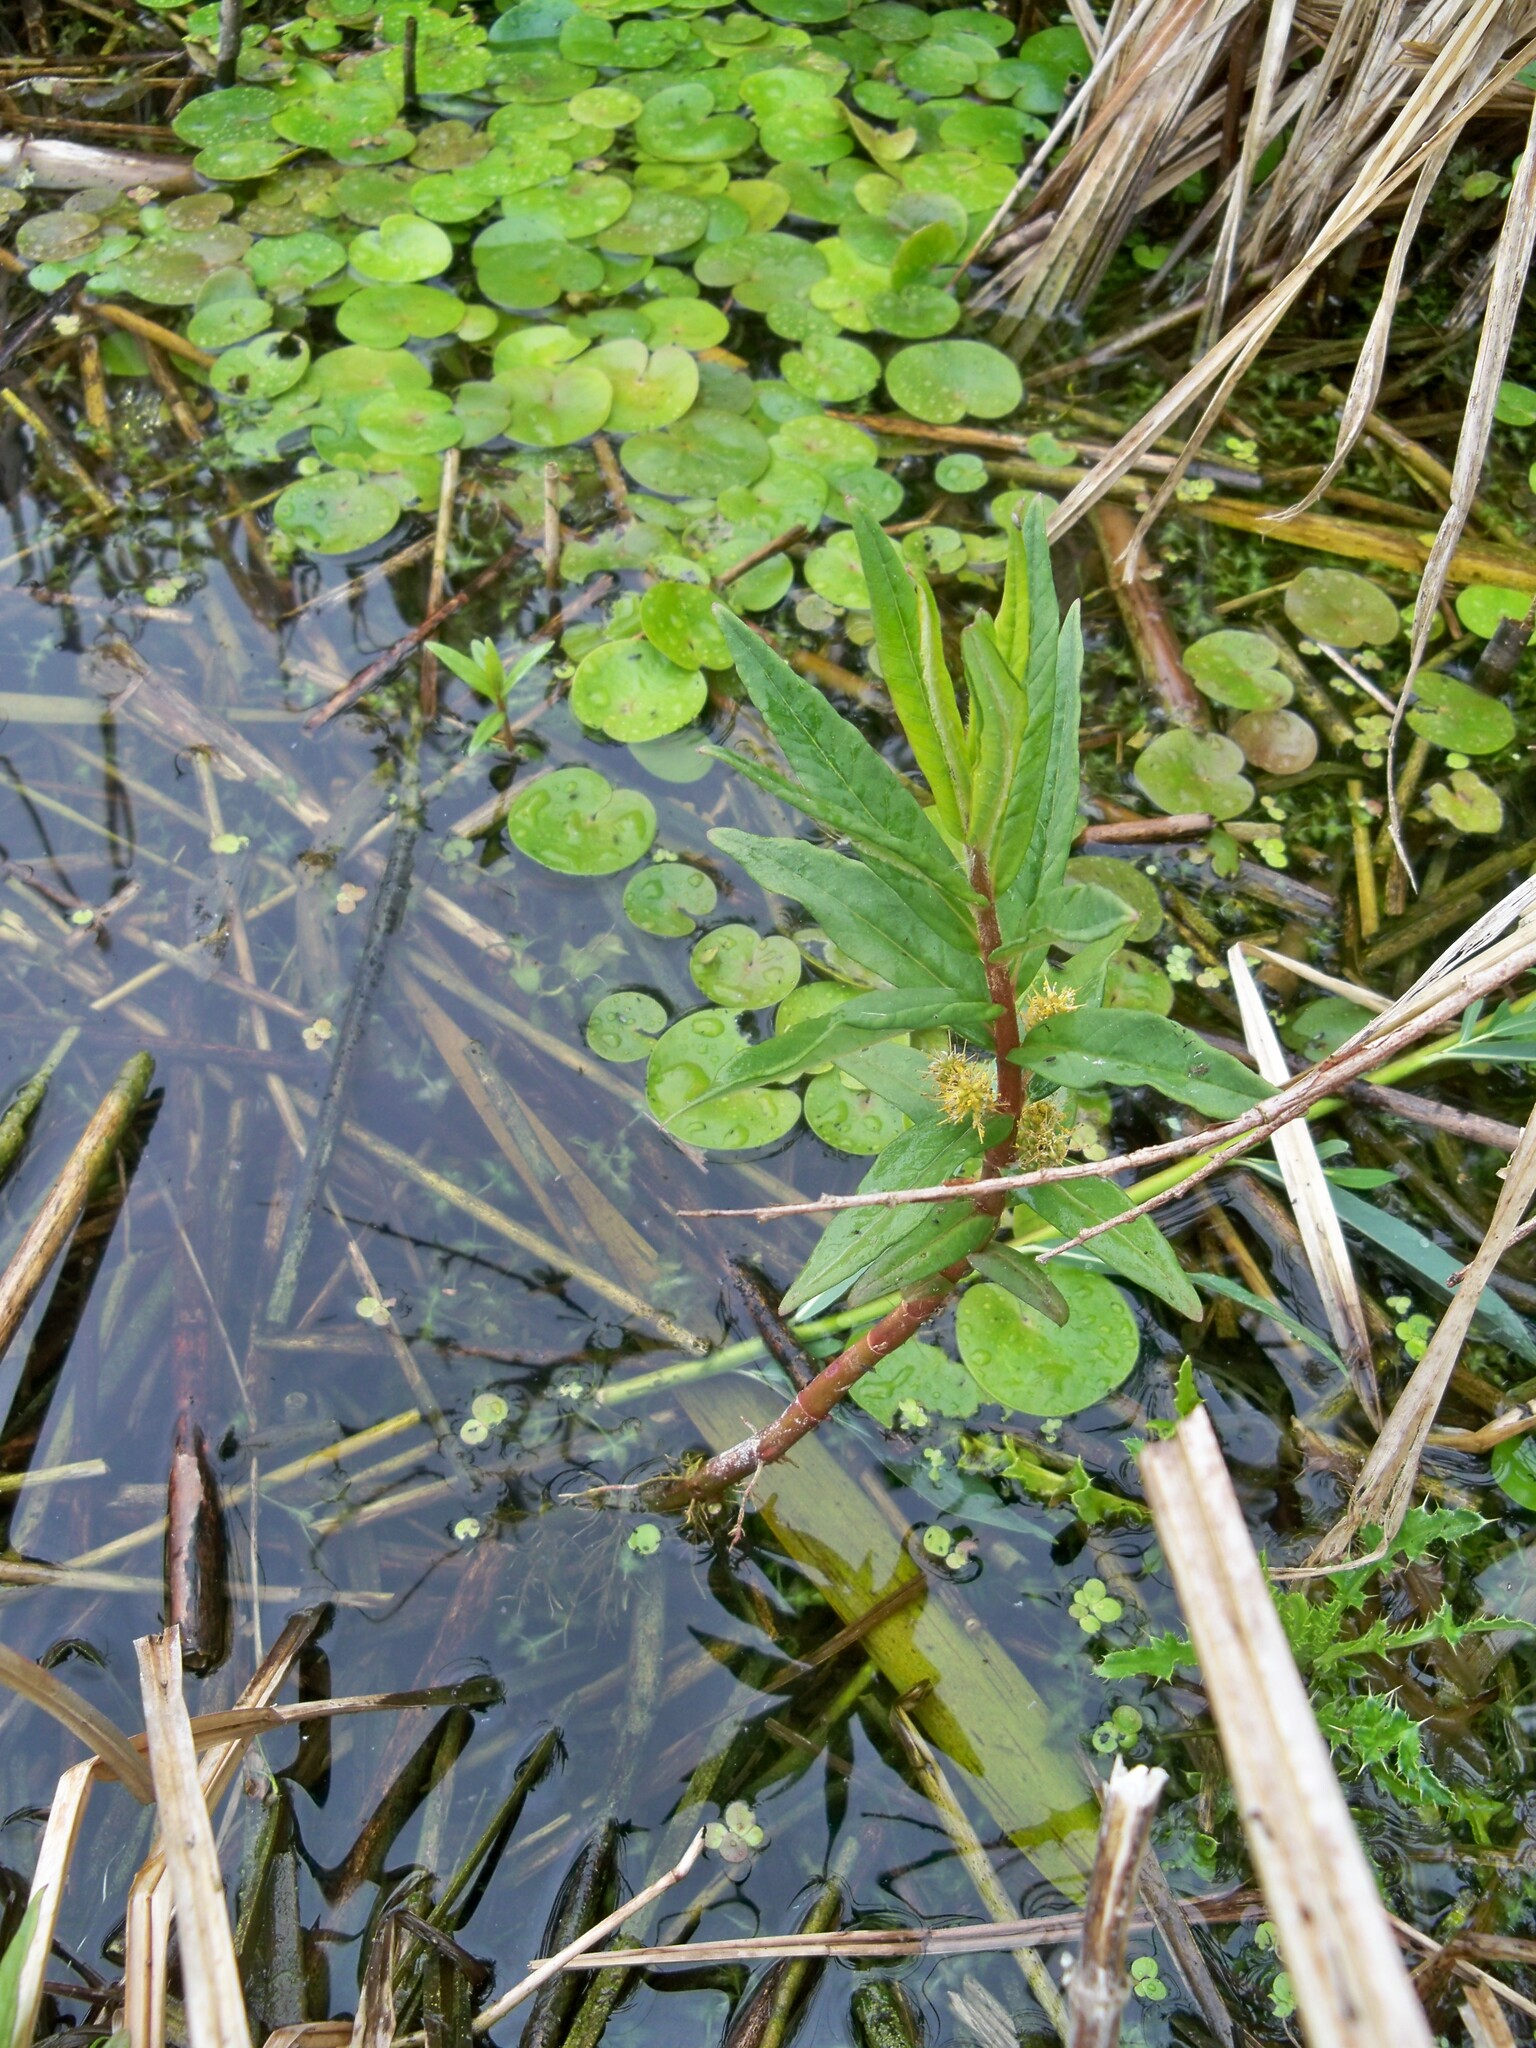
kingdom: Plantae
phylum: Tracheophyta
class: Magnoliopsida
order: Ericales
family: Primulaceae
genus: Lysimachia
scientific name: Lysimachia thyrsiflora
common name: Tufted loosestrife
